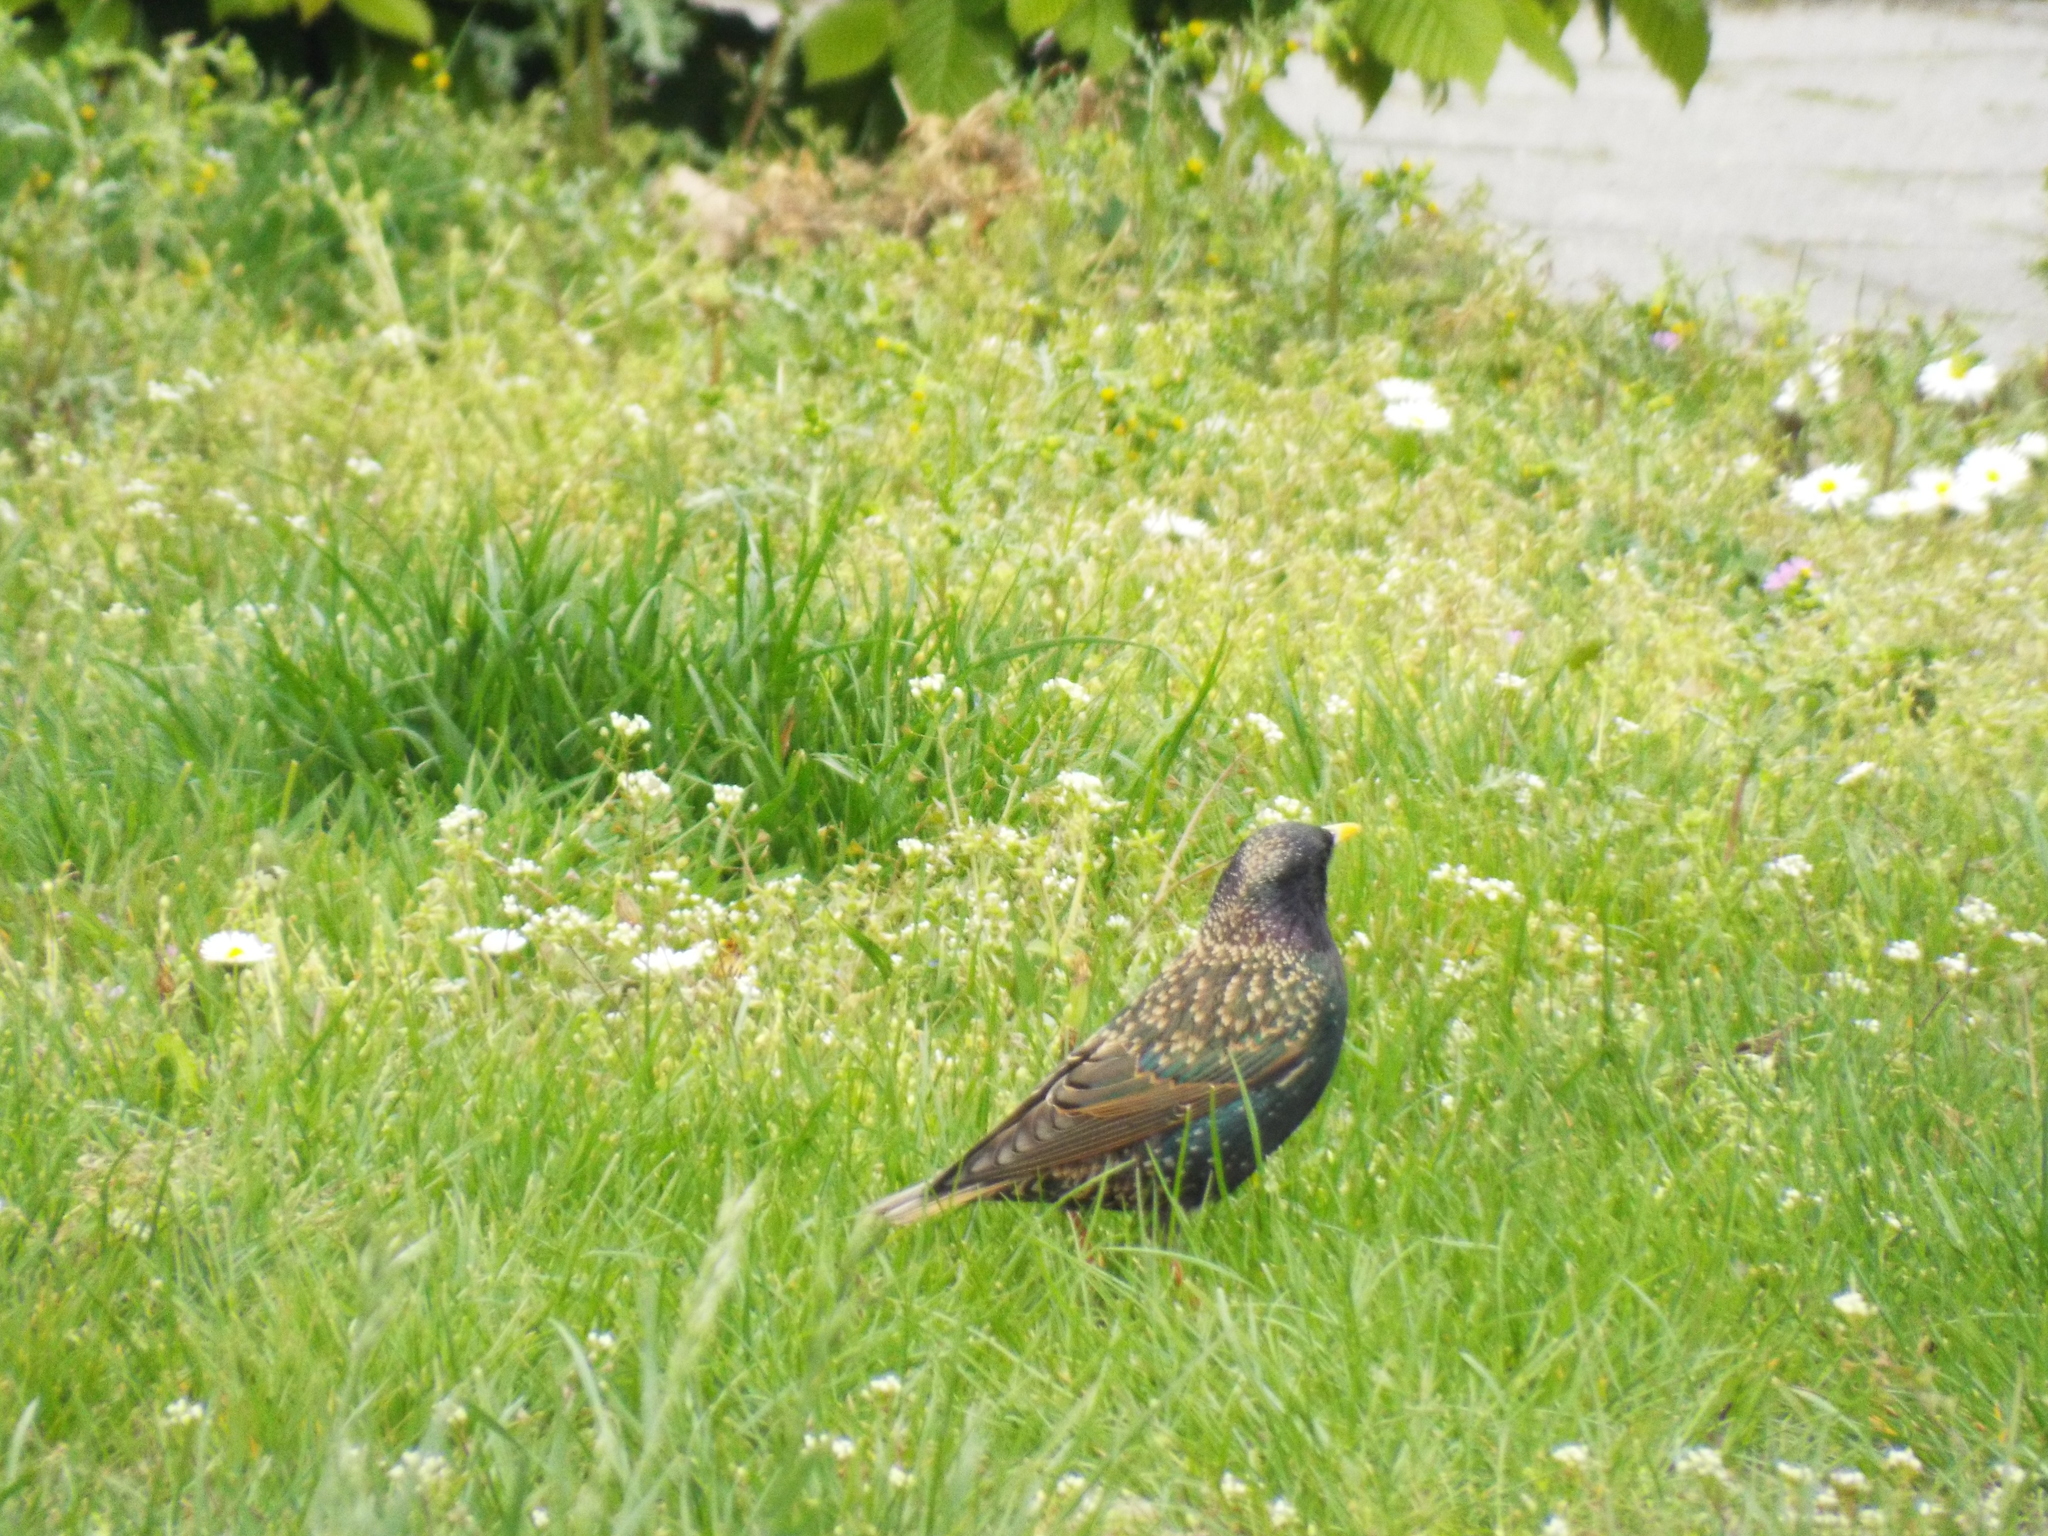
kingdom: Animalia
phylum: Chordata
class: Aves
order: Passeriformes
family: Sturnidae
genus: Sturnus
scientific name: Sturnus vulgaris
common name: Common starling
